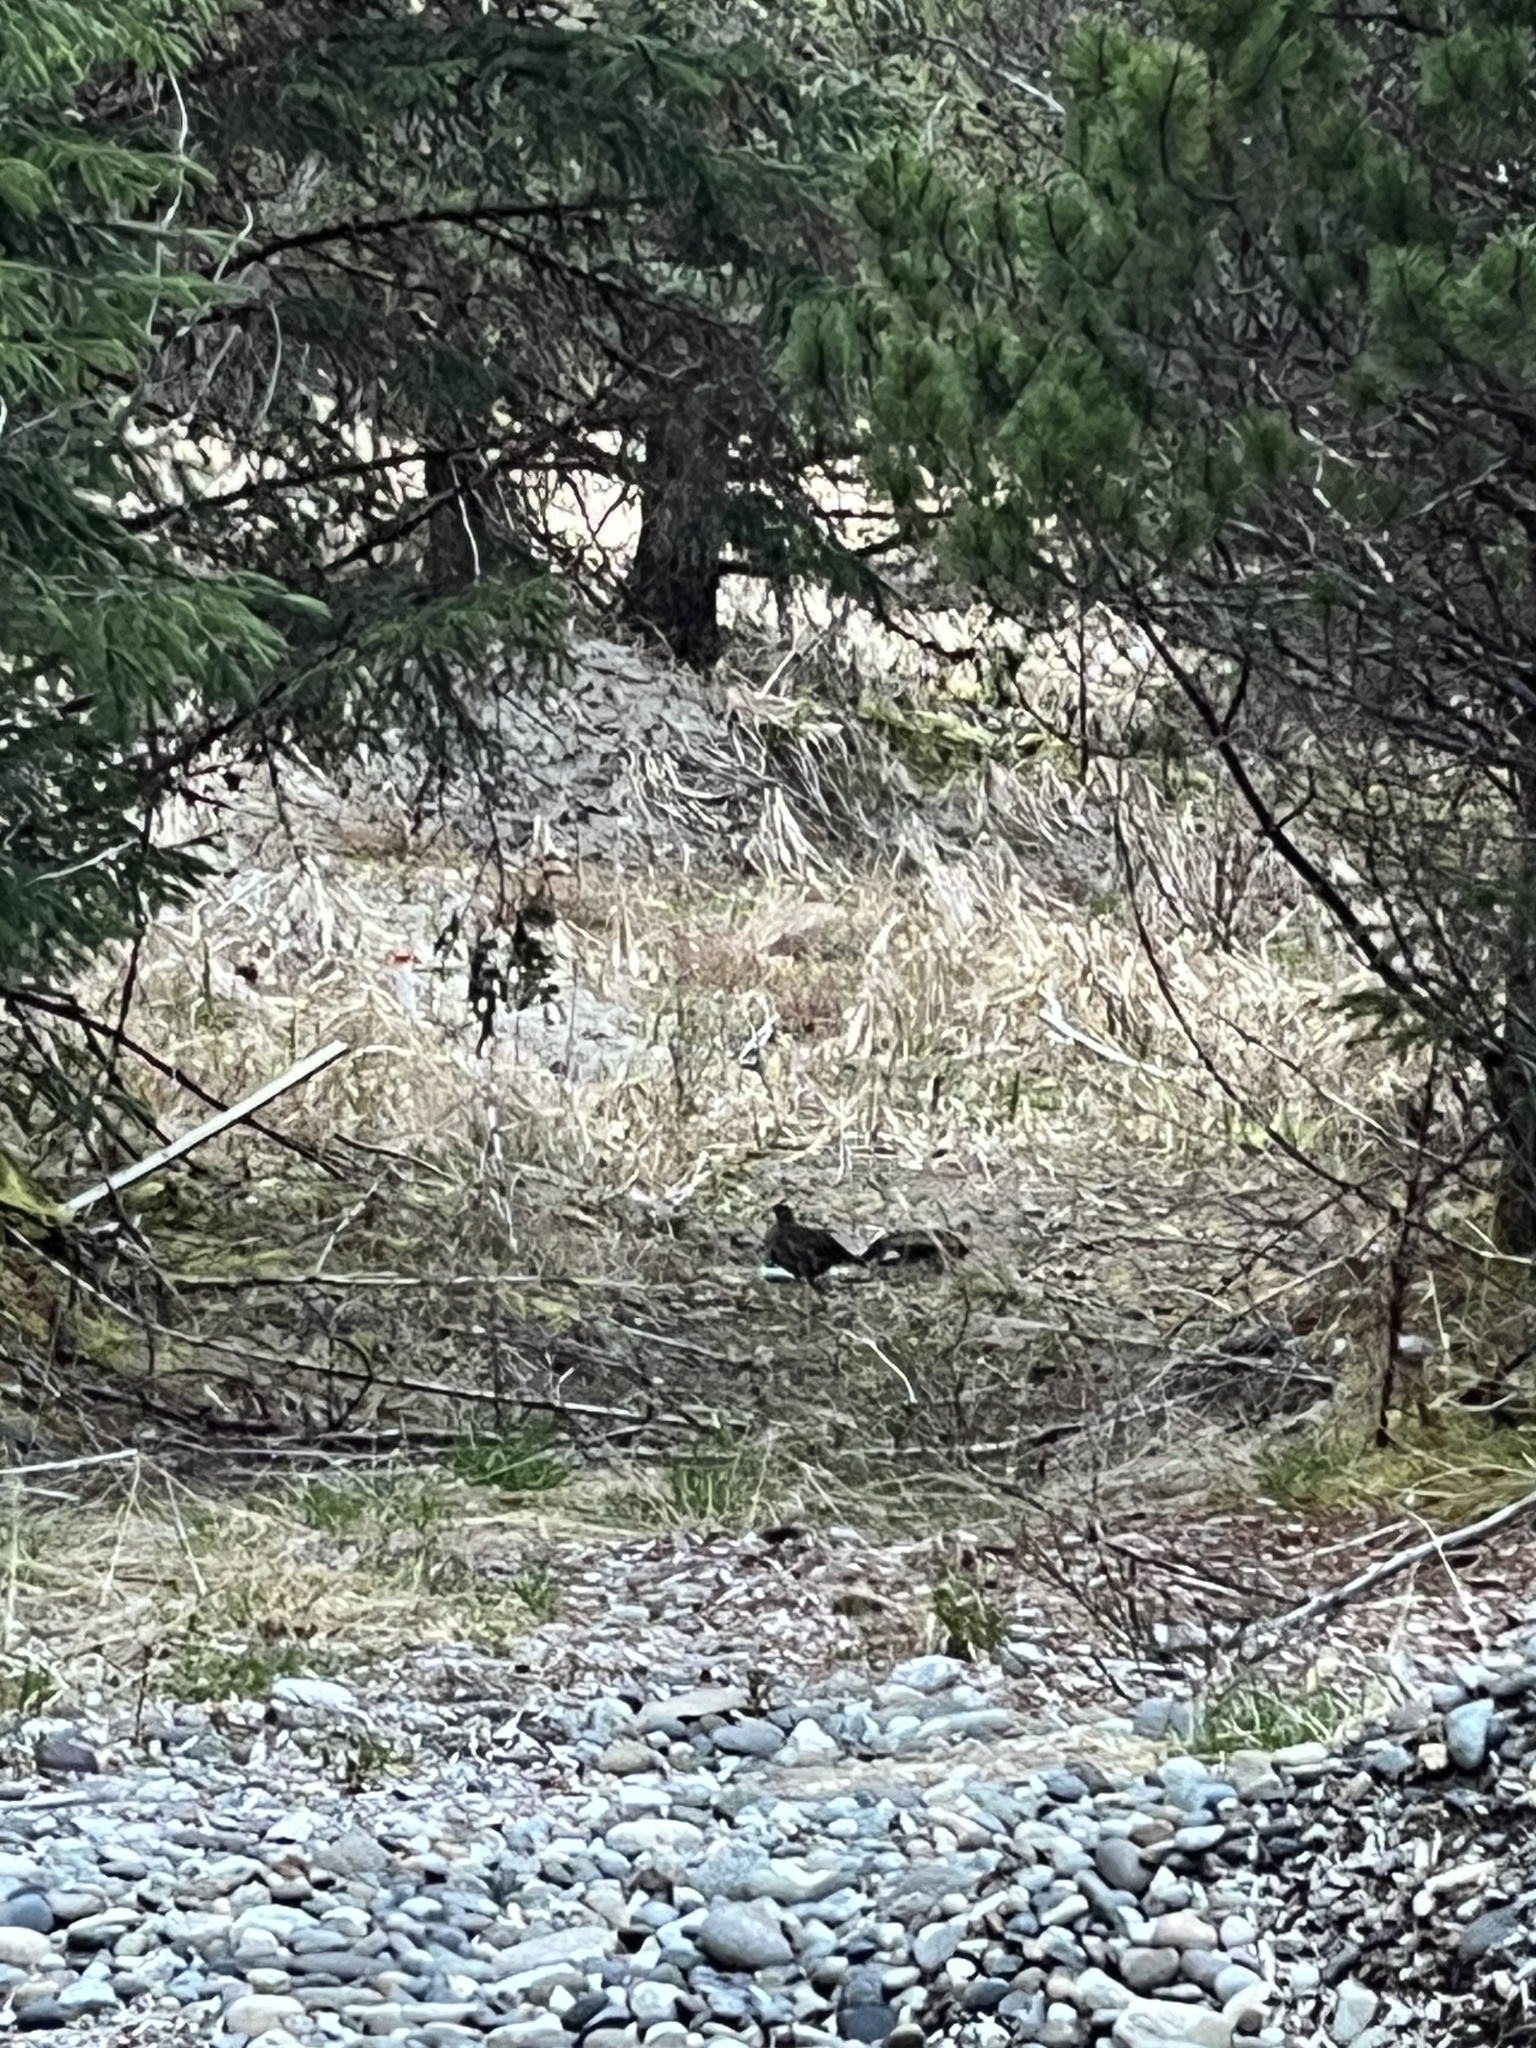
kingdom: Animalia
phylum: Chordata
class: Aves
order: Galliformes
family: Phasianidae
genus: Dendragapus
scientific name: Dendragapus fuliginosus
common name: Sooty grouse
